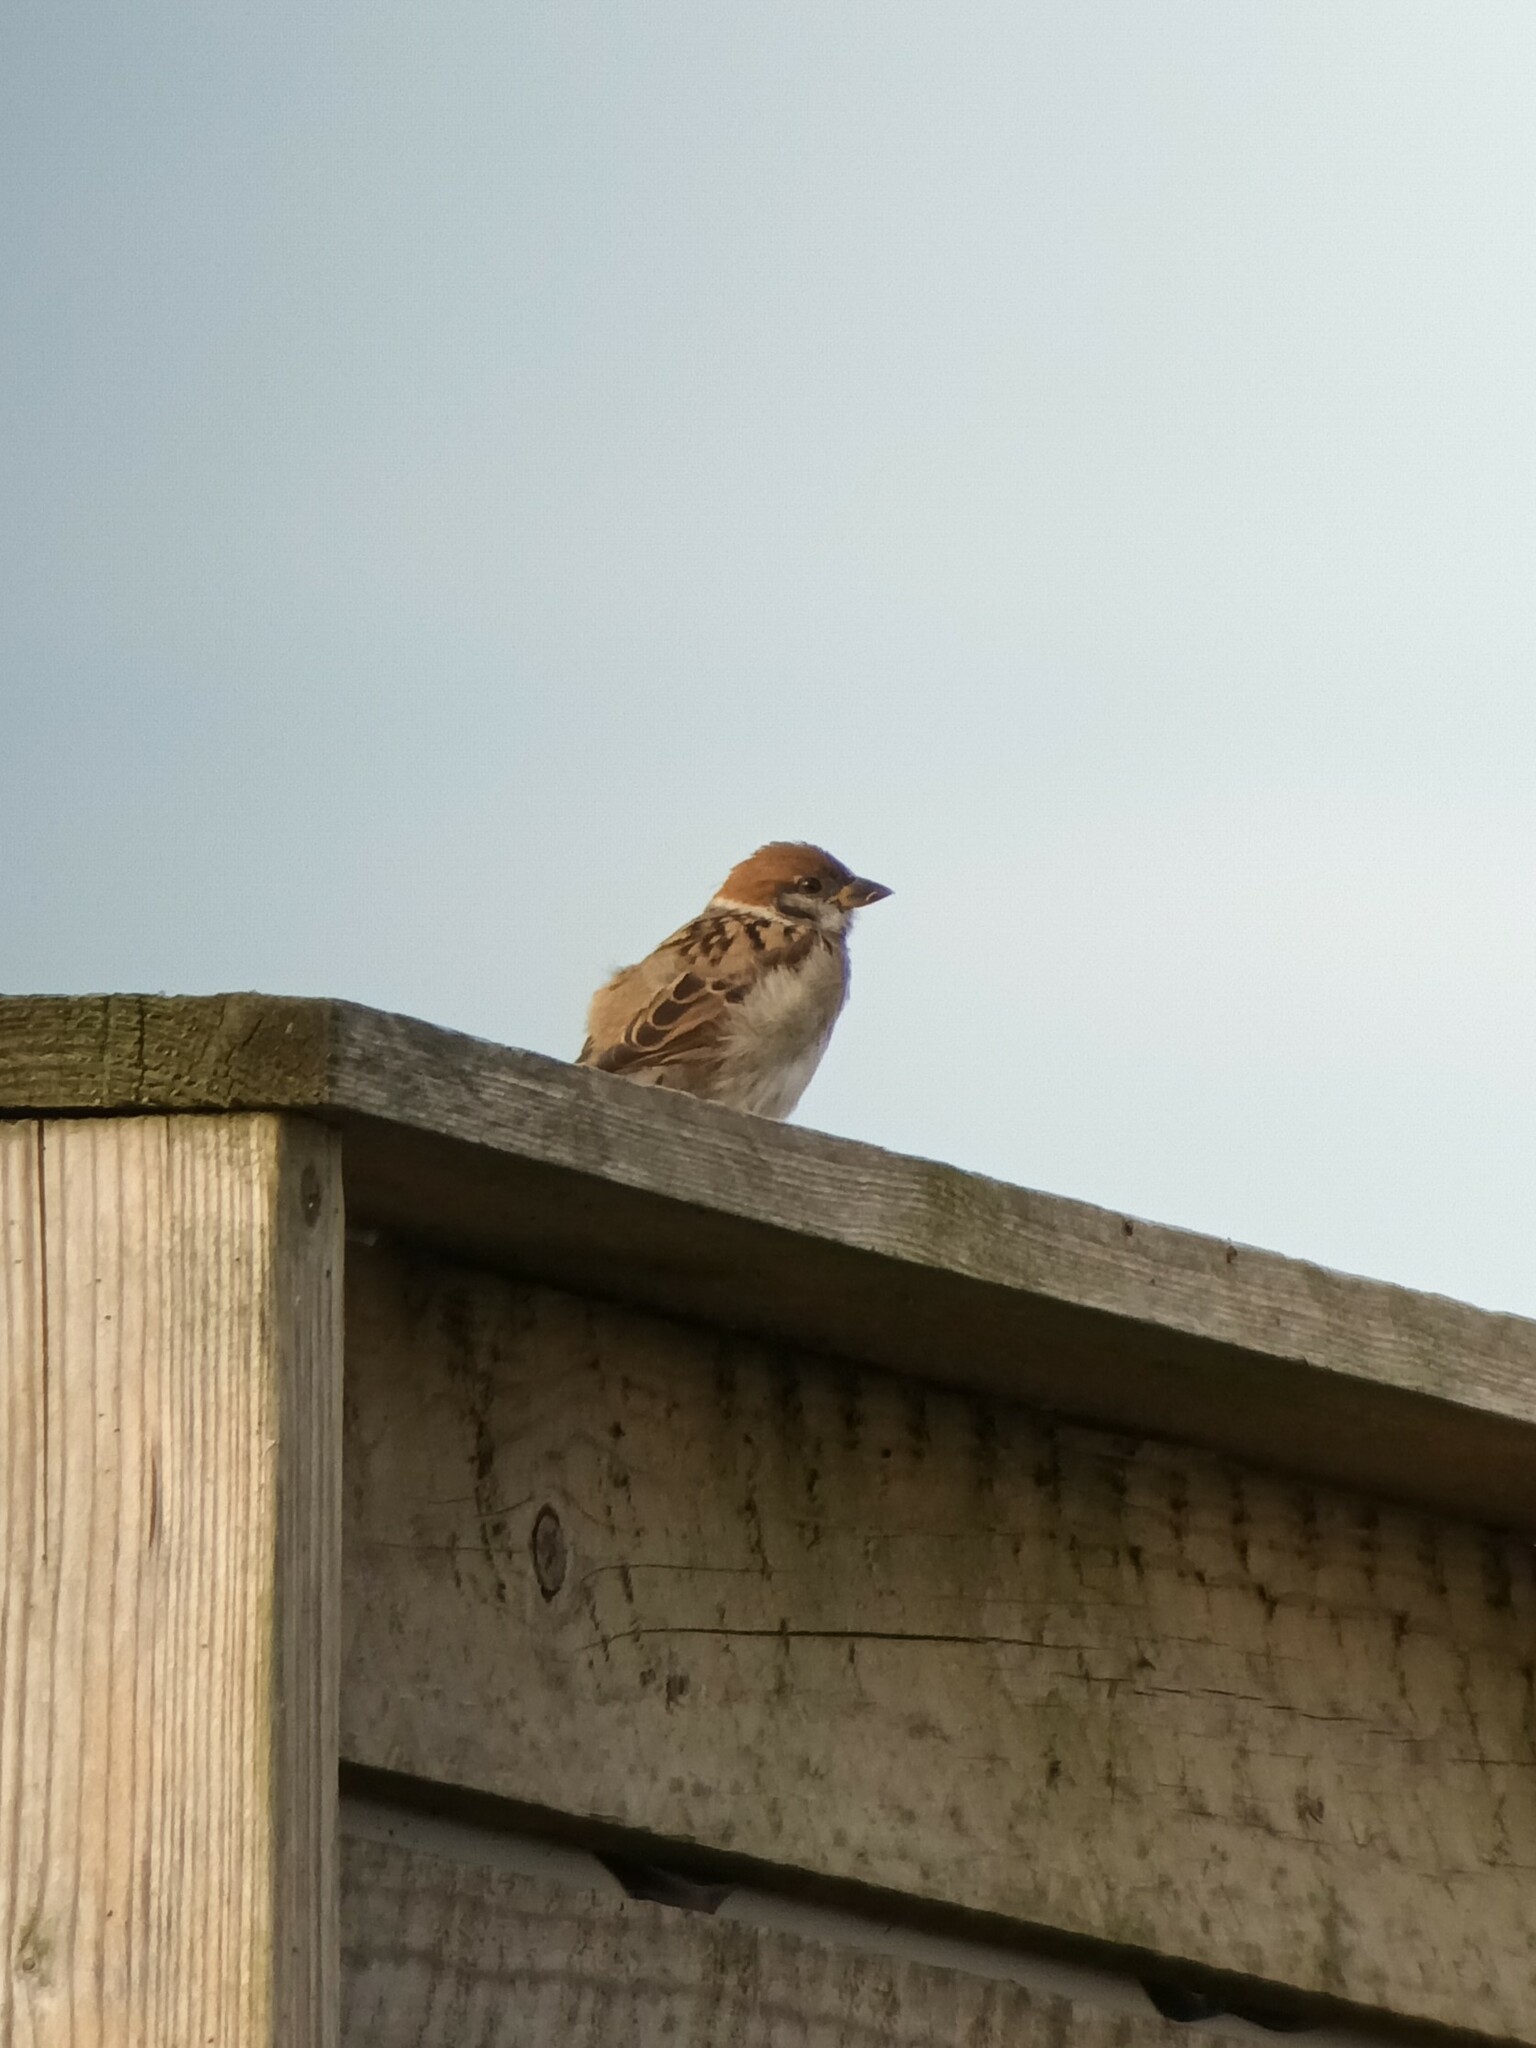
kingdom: Animalia
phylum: Chordata
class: Aves
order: Passeriformes
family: Passeridae
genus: Passer
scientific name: Passer montanus
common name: Eurasian tree sparrow
